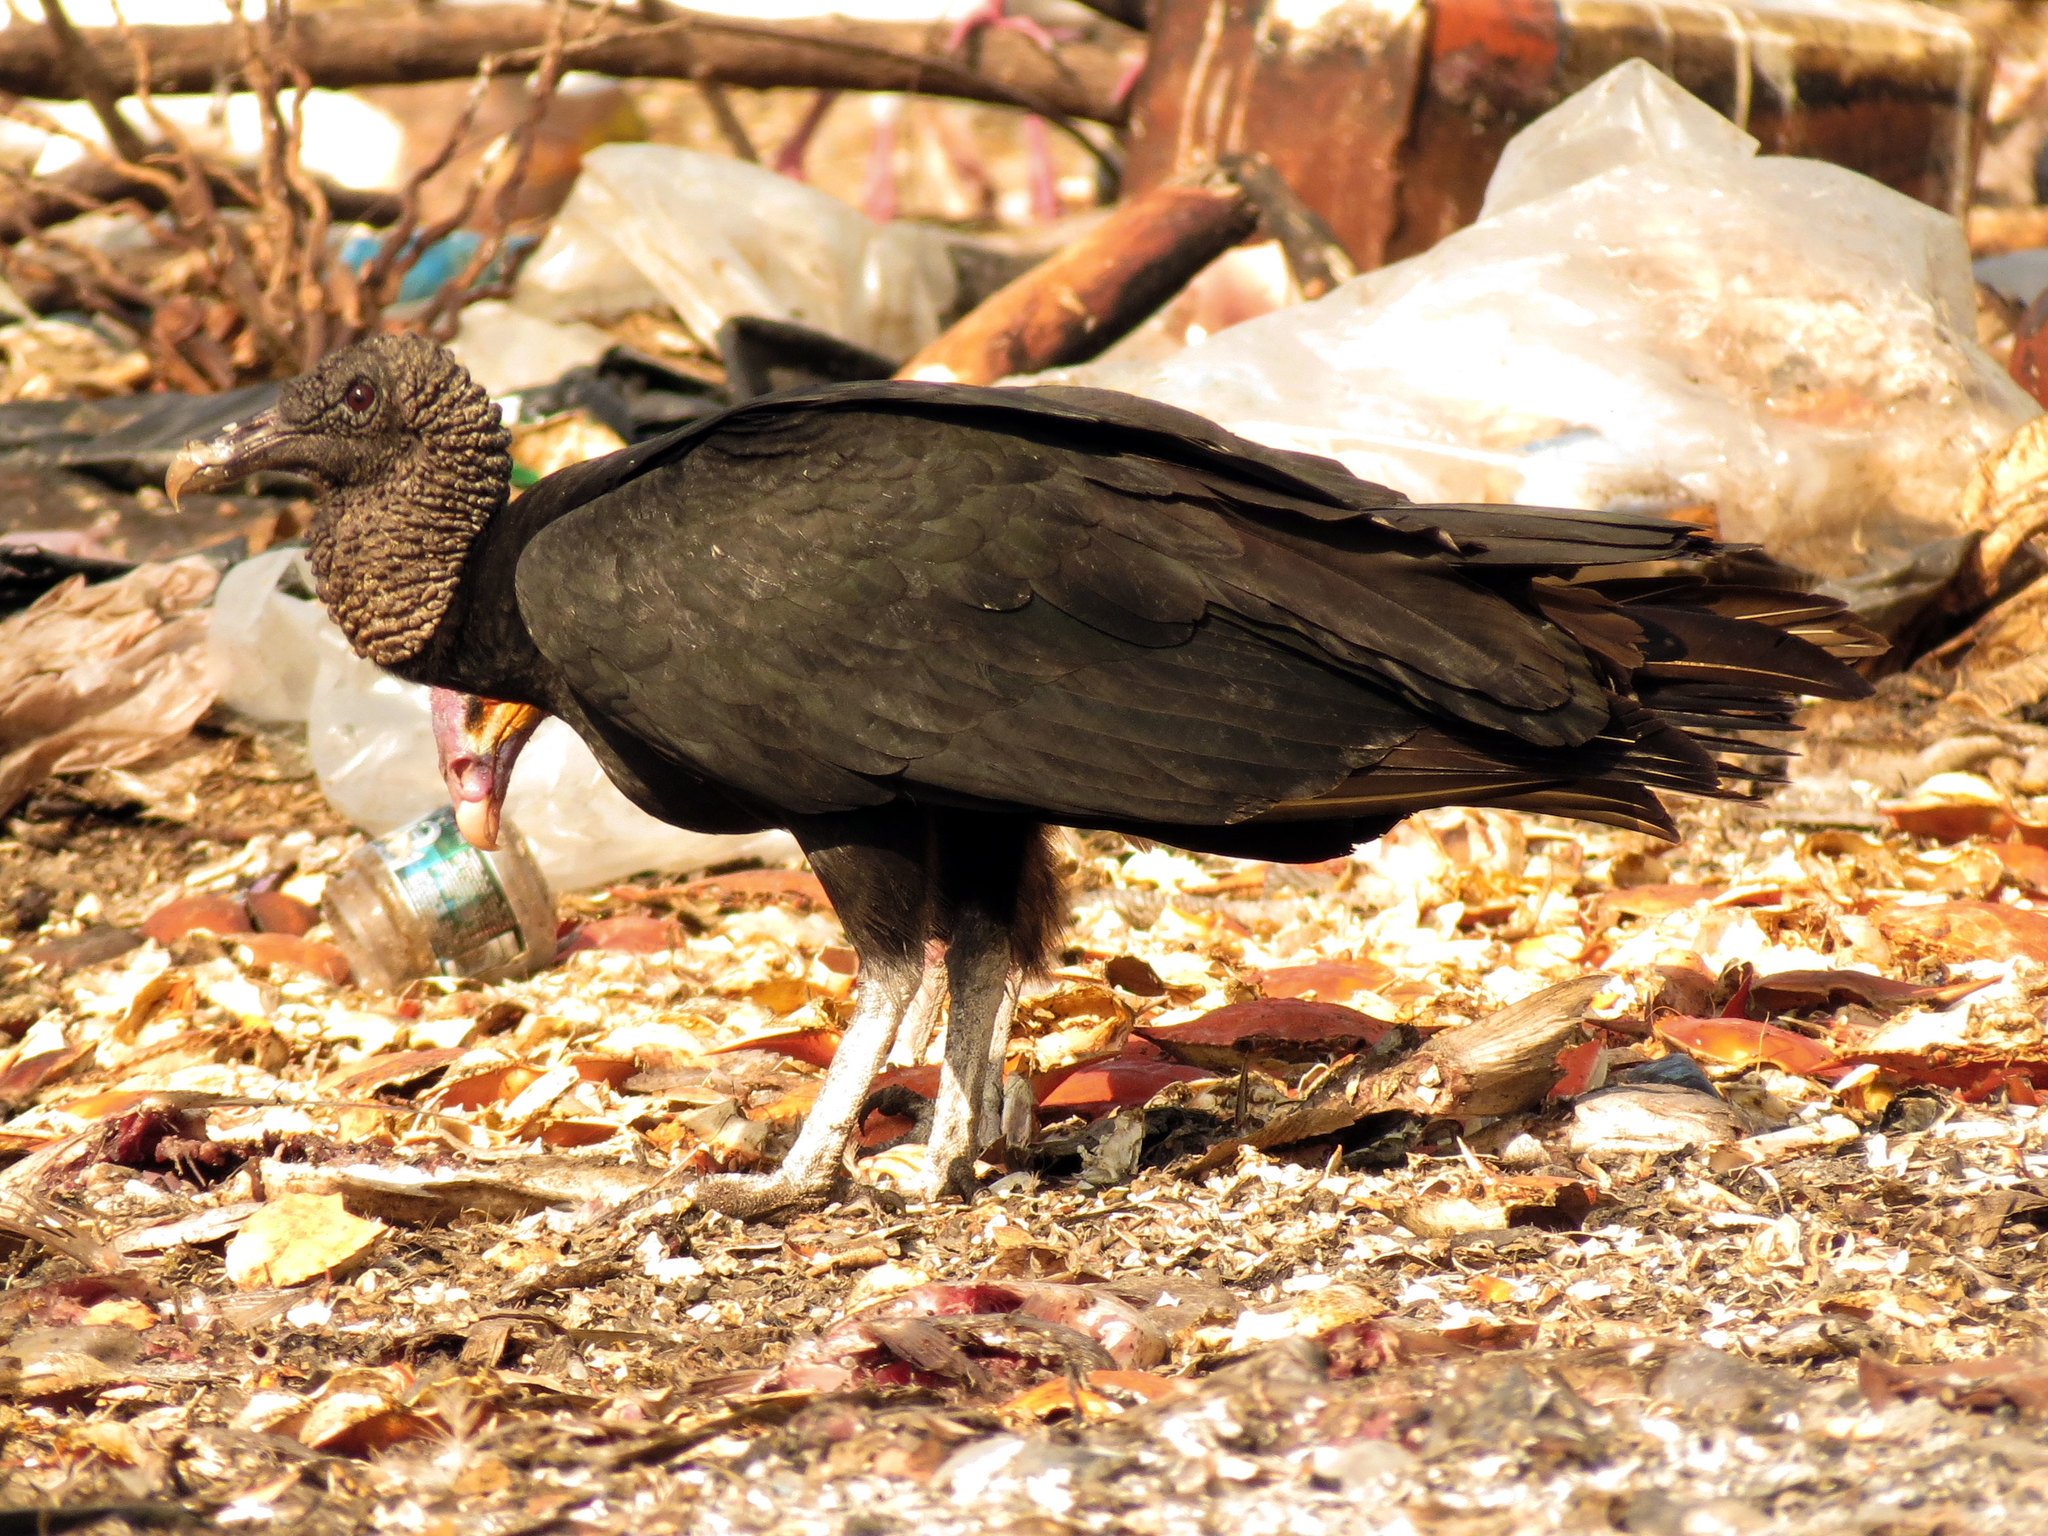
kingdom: Animalia
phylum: Chordata
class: Aves
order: Accipitriformes
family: Cathartidae
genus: Coragyps
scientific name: Coragyps atratus
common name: Black vulture
